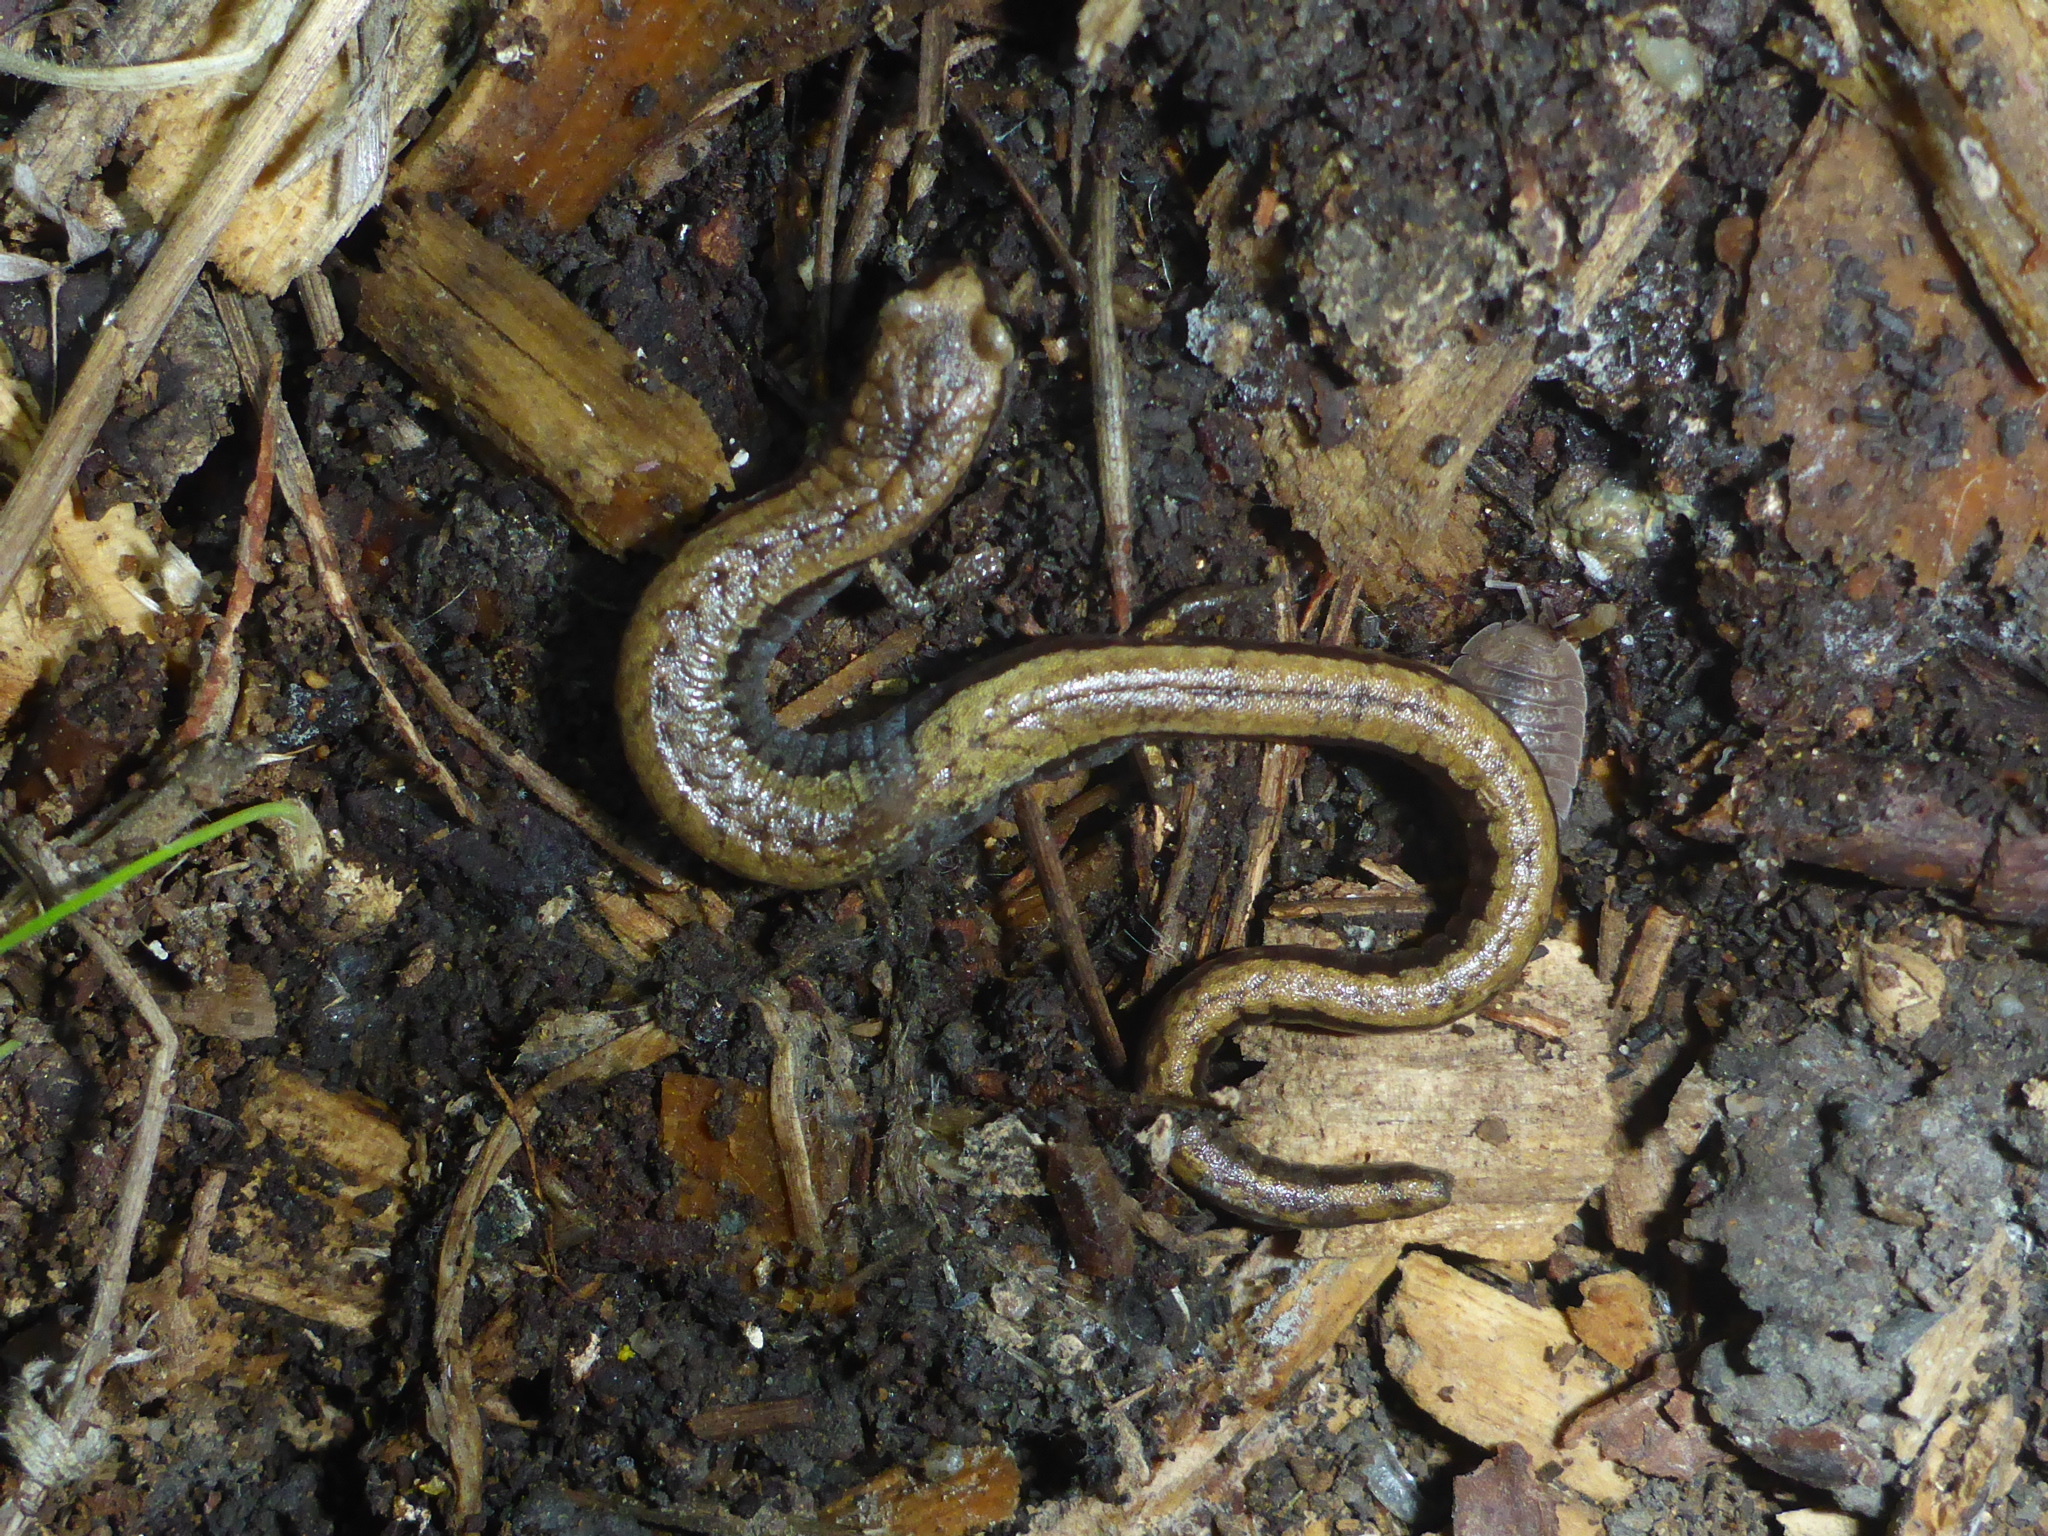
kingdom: Animalia
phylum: Chordata
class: Amphibia
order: Caudata
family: Plethodontidae
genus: Batrachoseps
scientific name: Batrachoseps attenuatus
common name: California slender salamander
